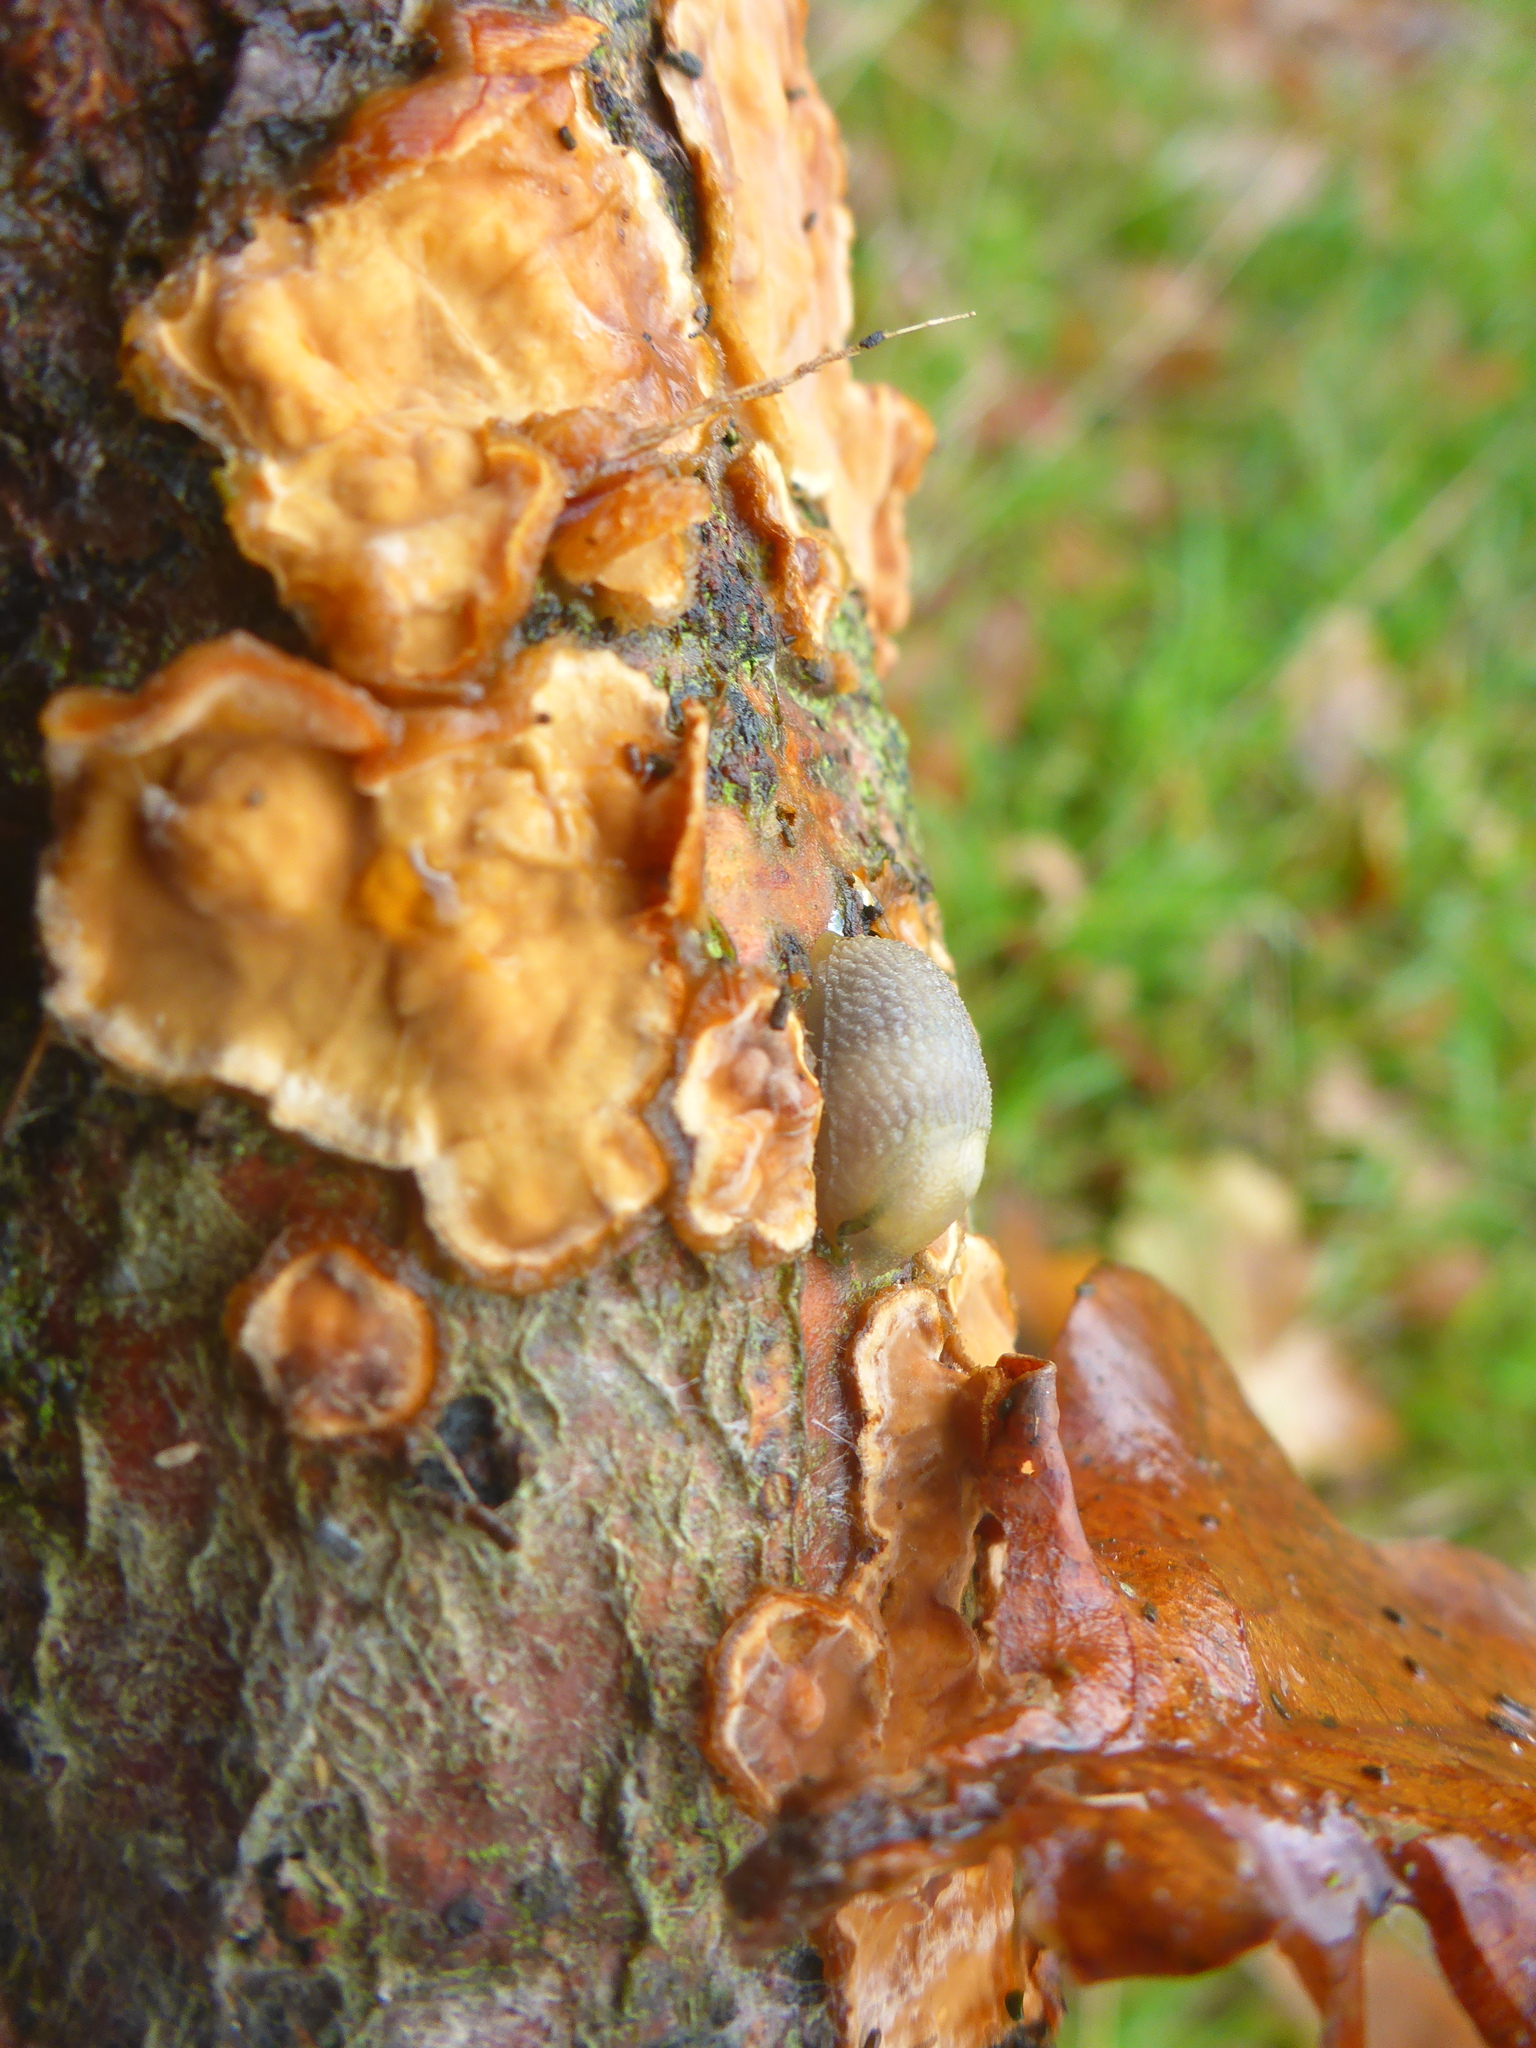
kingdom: Animalia
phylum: Mollusca
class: Gastropoda
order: Stylommatophora
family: Arionidae
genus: Arion
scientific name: Arion intermedius
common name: Hedgehog slug
